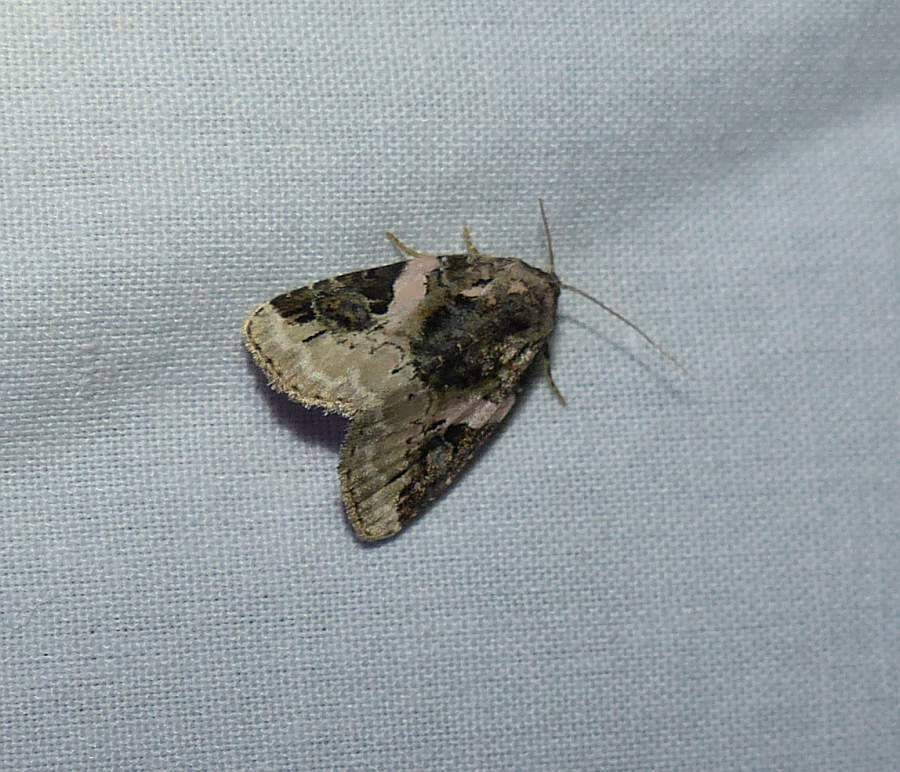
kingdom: Animalia
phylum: Arthropoda
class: Insecta
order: Lepidoptera
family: Noctuidae
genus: Pseudeustrotia
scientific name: Pseudeustrotia carneola
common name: Pink-barred lithacodia moth
